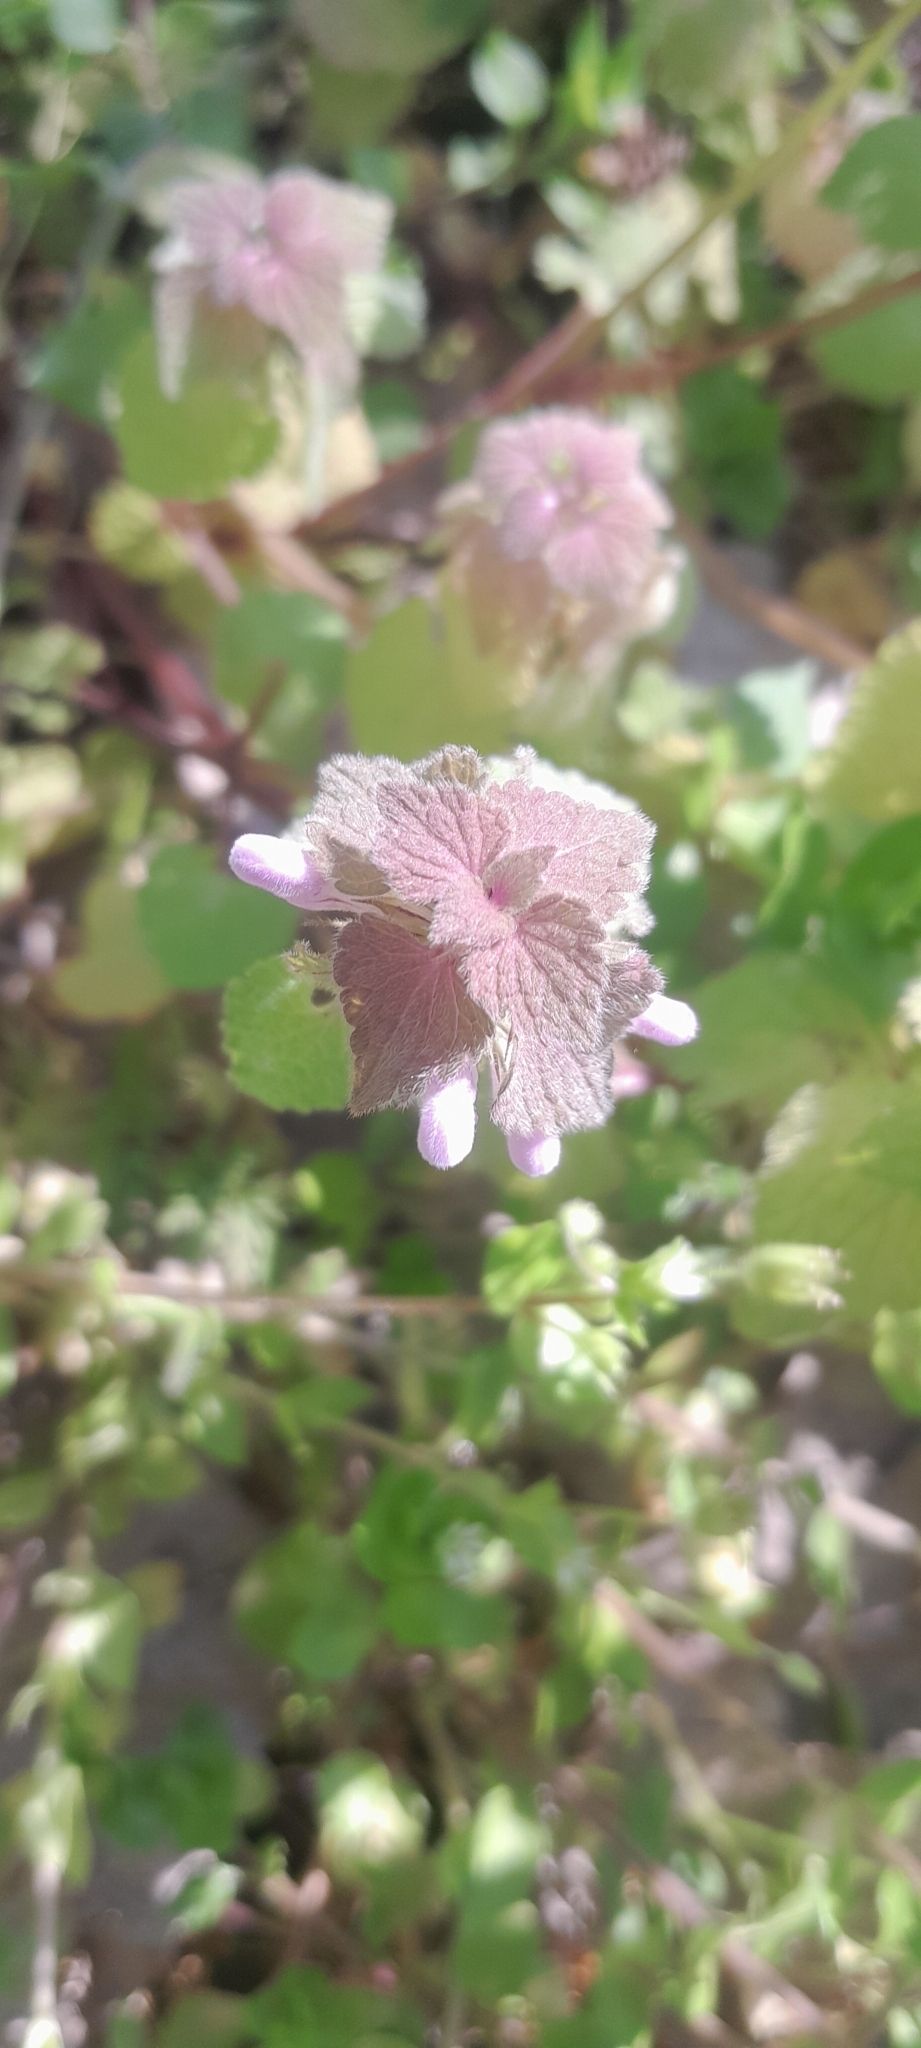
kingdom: Plantae
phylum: Tracheophyta
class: Magnoliopsida
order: Lamiales
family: Lamiaceae
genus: Lamium
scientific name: Lamium purpureum
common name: Red dead-nettle
